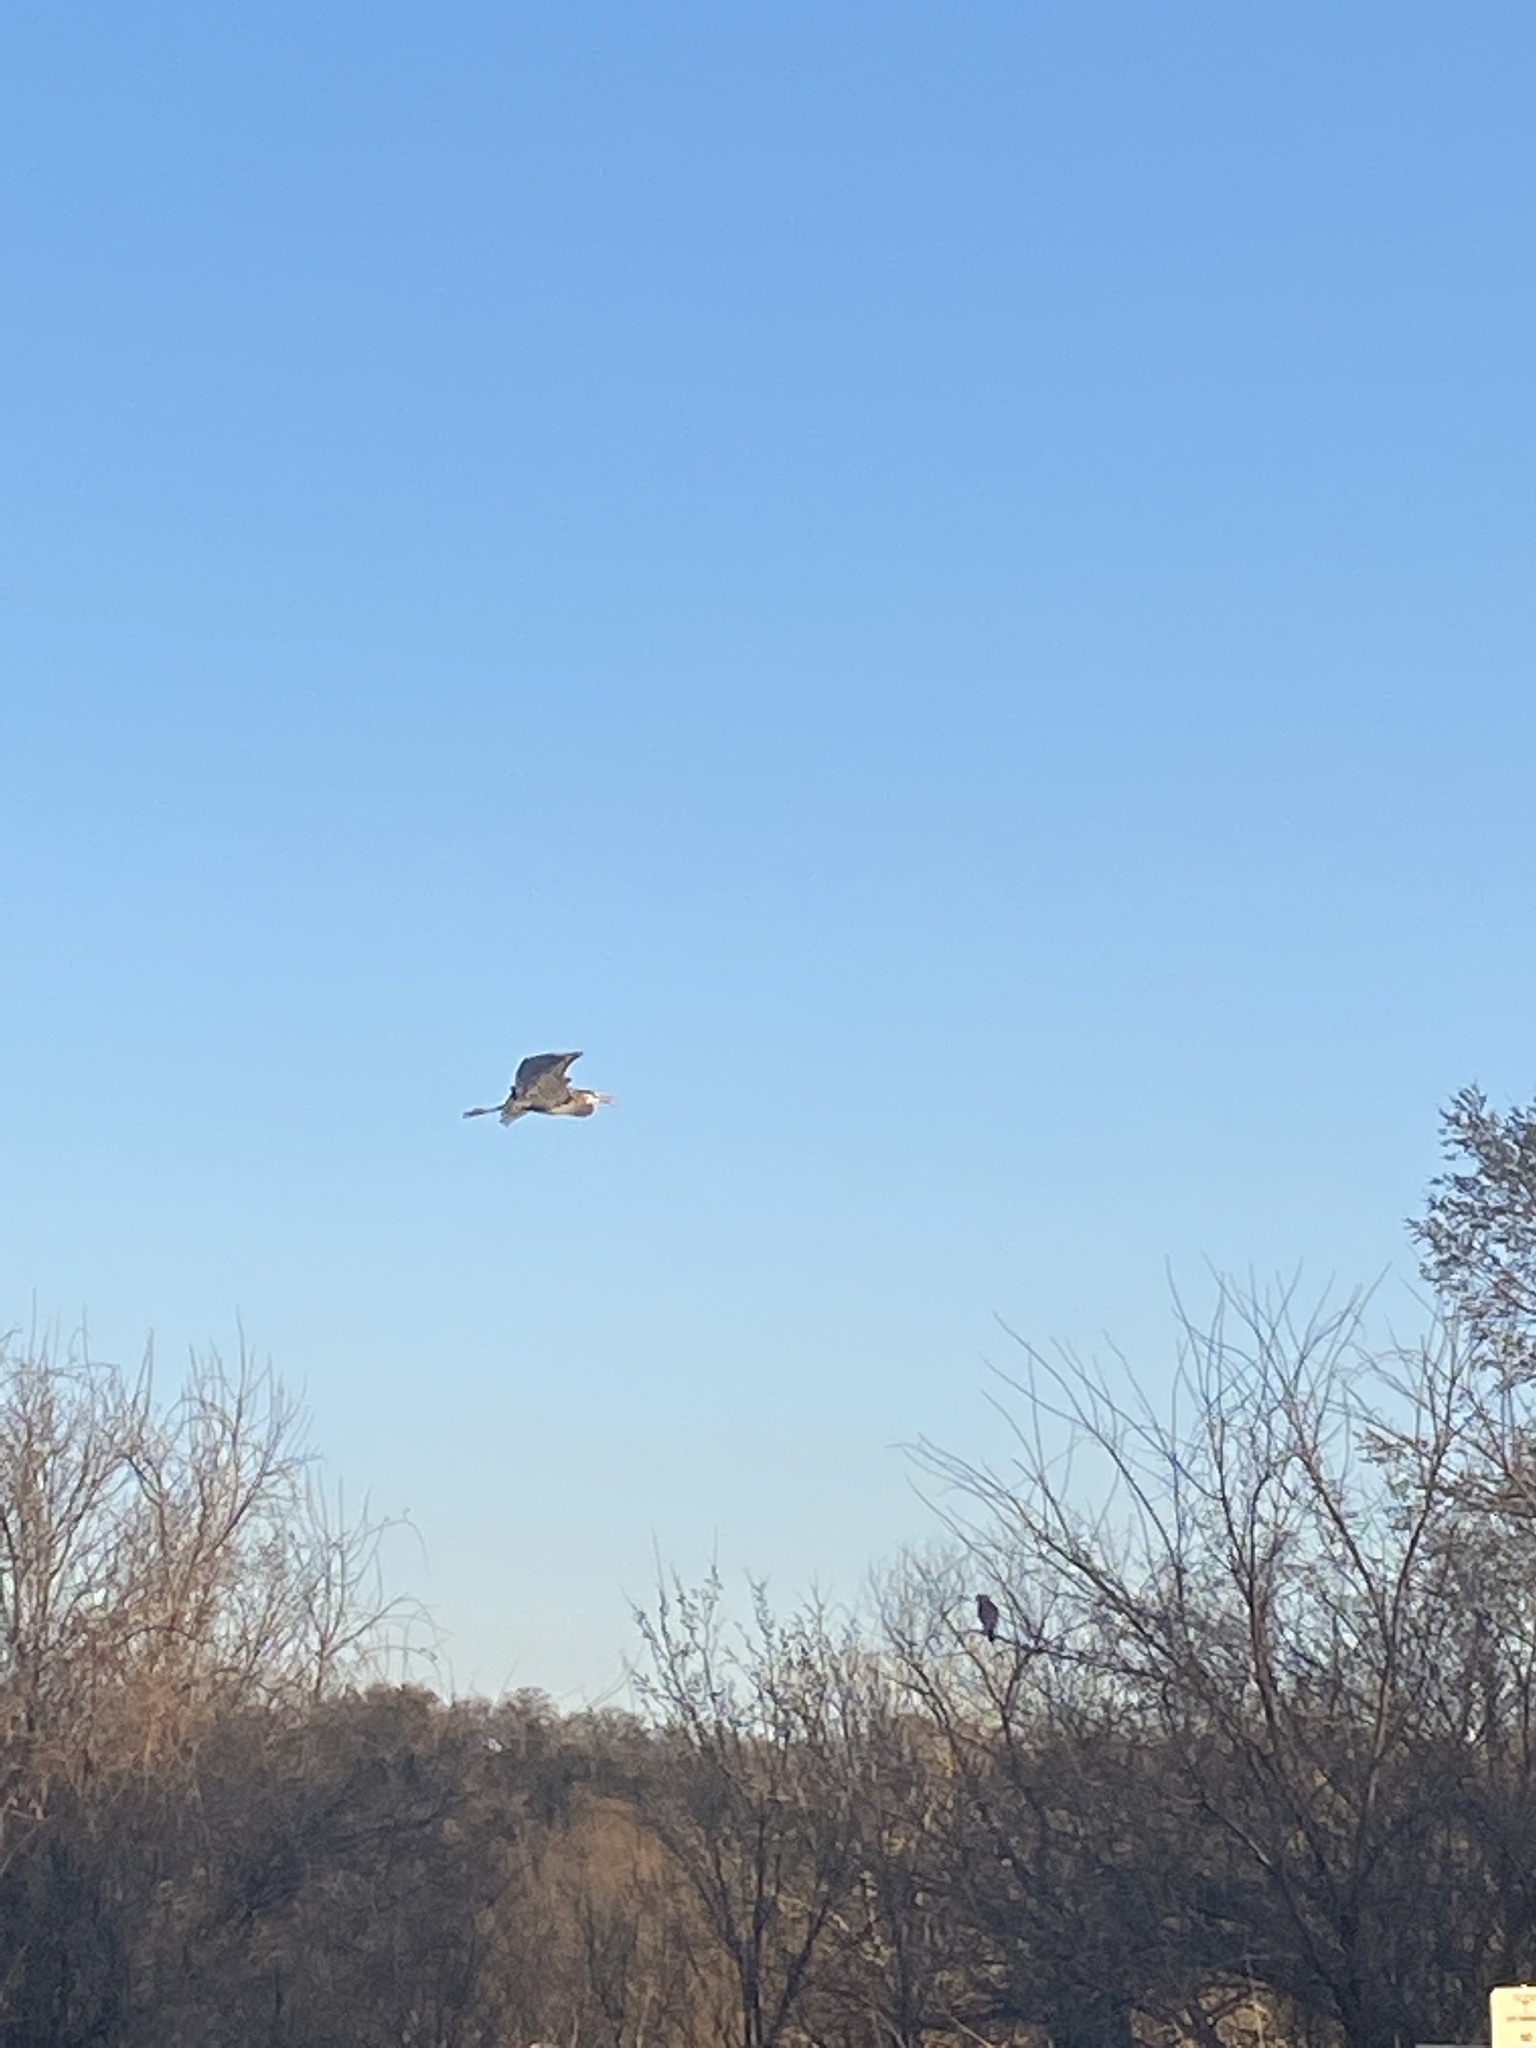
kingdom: Animalia
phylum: Chordata
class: Aves
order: Pelecaniformes
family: Ardeidae
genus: Ardea
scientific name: Ardea herodias
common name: Great blue heron
